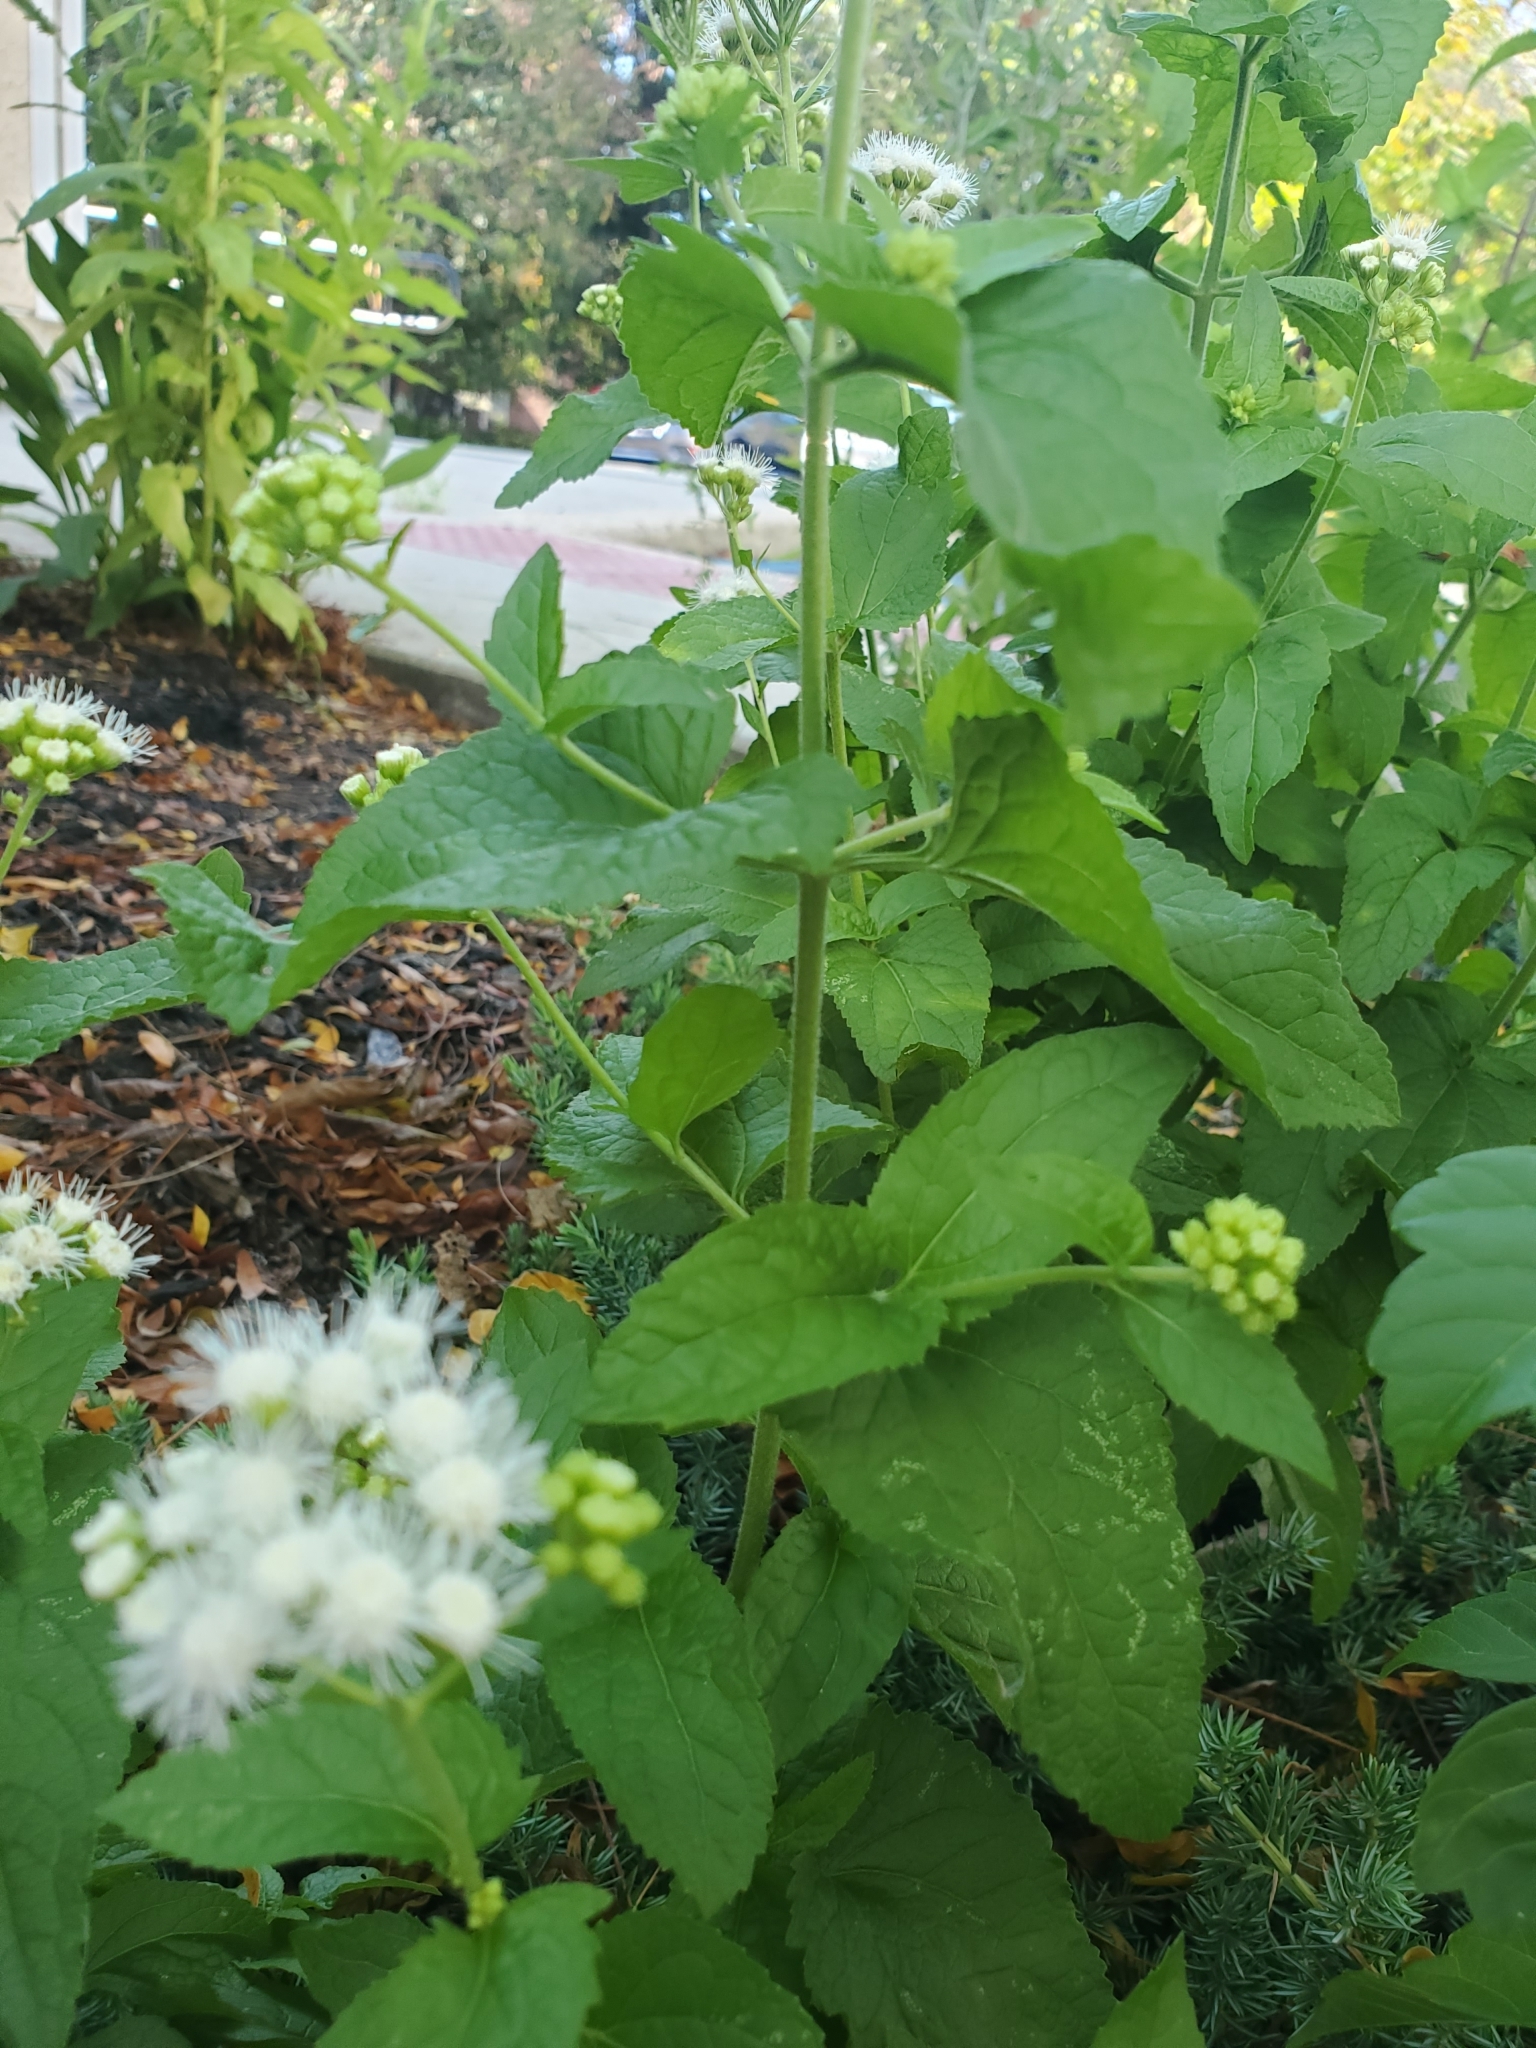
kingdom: Plantae
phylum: Tracheophyta
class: Magnoliopsida
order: Asterales
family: Asteraceae
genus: Conoclinium
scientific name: Conoclinium coelestinum
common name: Blue mistflower
